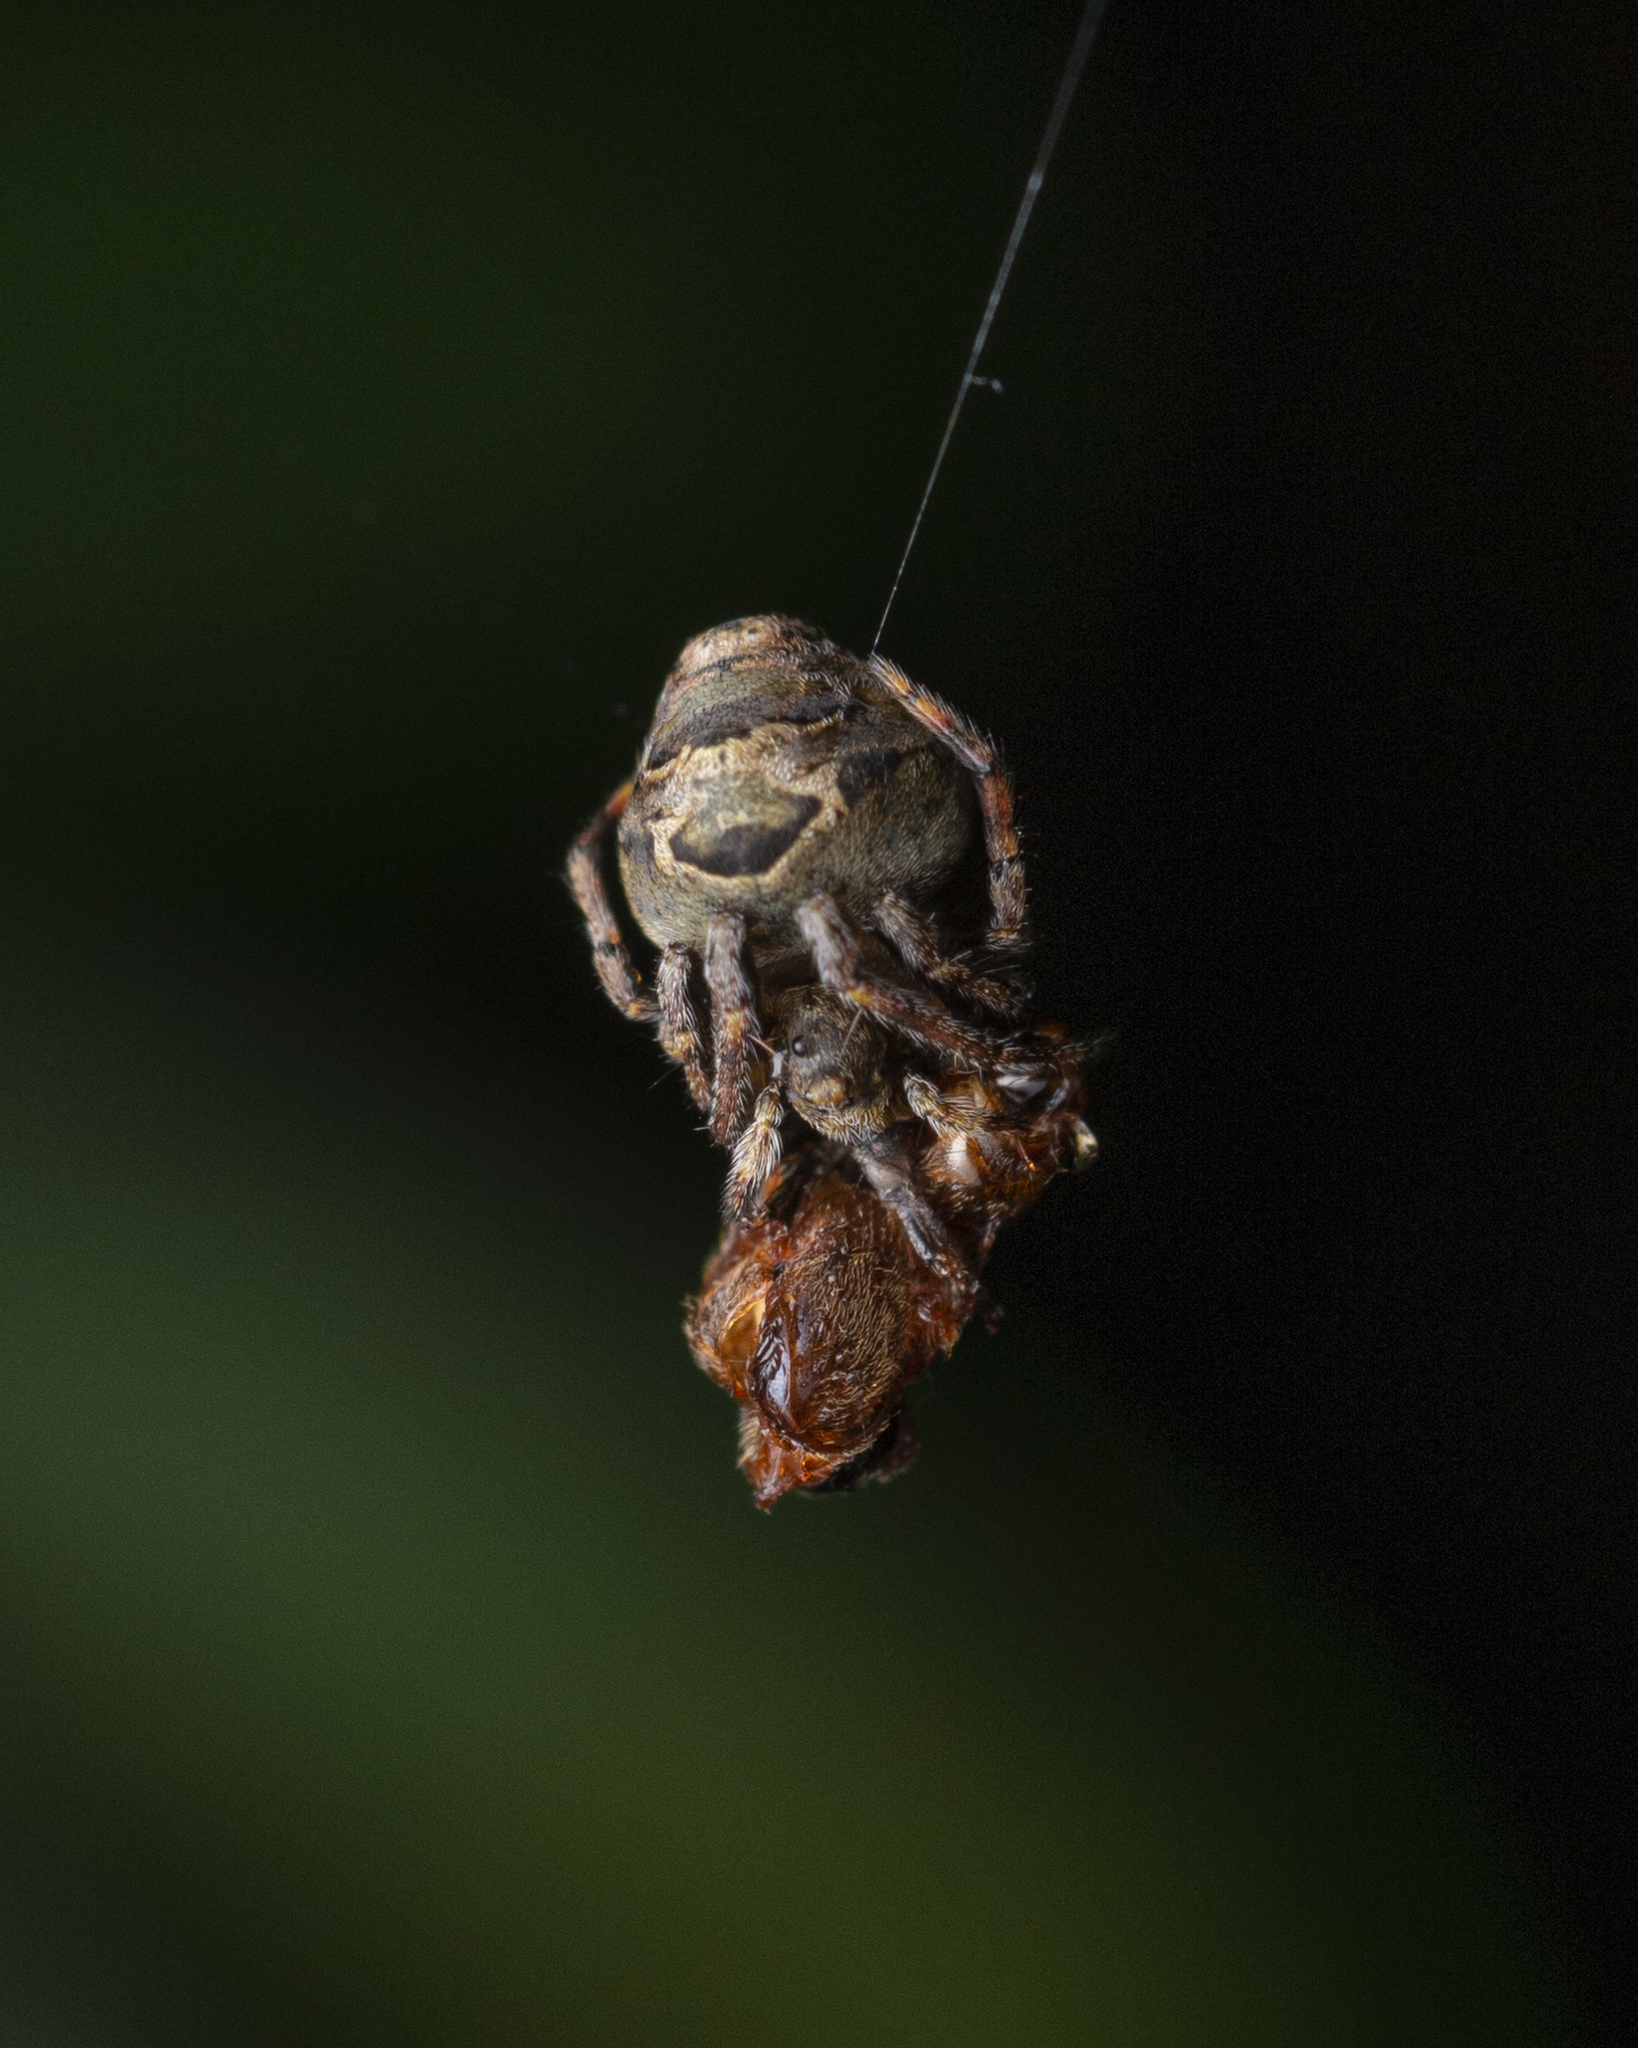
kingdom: Animalia
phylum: Arthropoda
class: Arachnida
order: Araneae
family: Araneidae
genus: Eriovixia
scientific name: Eriovixia nigrimaculata
